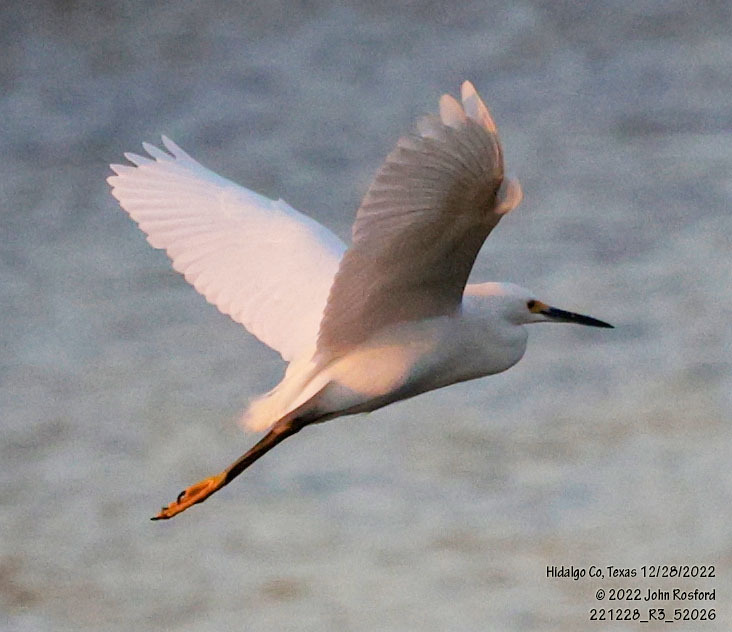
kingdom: Animalia
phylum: Chordata
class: Aves
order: Pelecaniformes
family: Ardeidae
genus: Egretta
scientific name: Egretta thula
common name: Snowy egret
